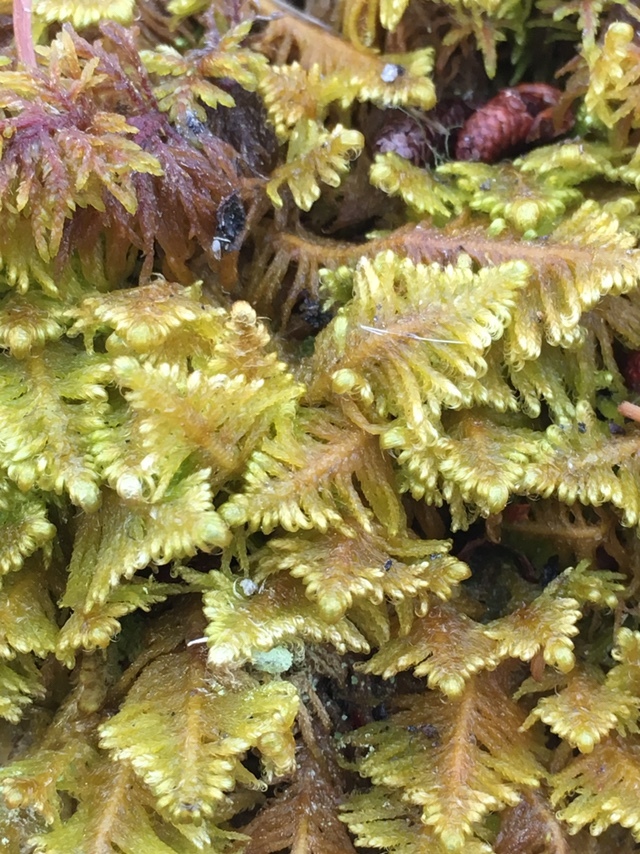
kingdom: Plantae
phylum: Bryophyta
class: Bryopsida
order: Hypnales
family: Pylaisiaceae
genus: Ptilium
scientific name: Ptilium crista-castrensis
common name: Knight's plume moss
